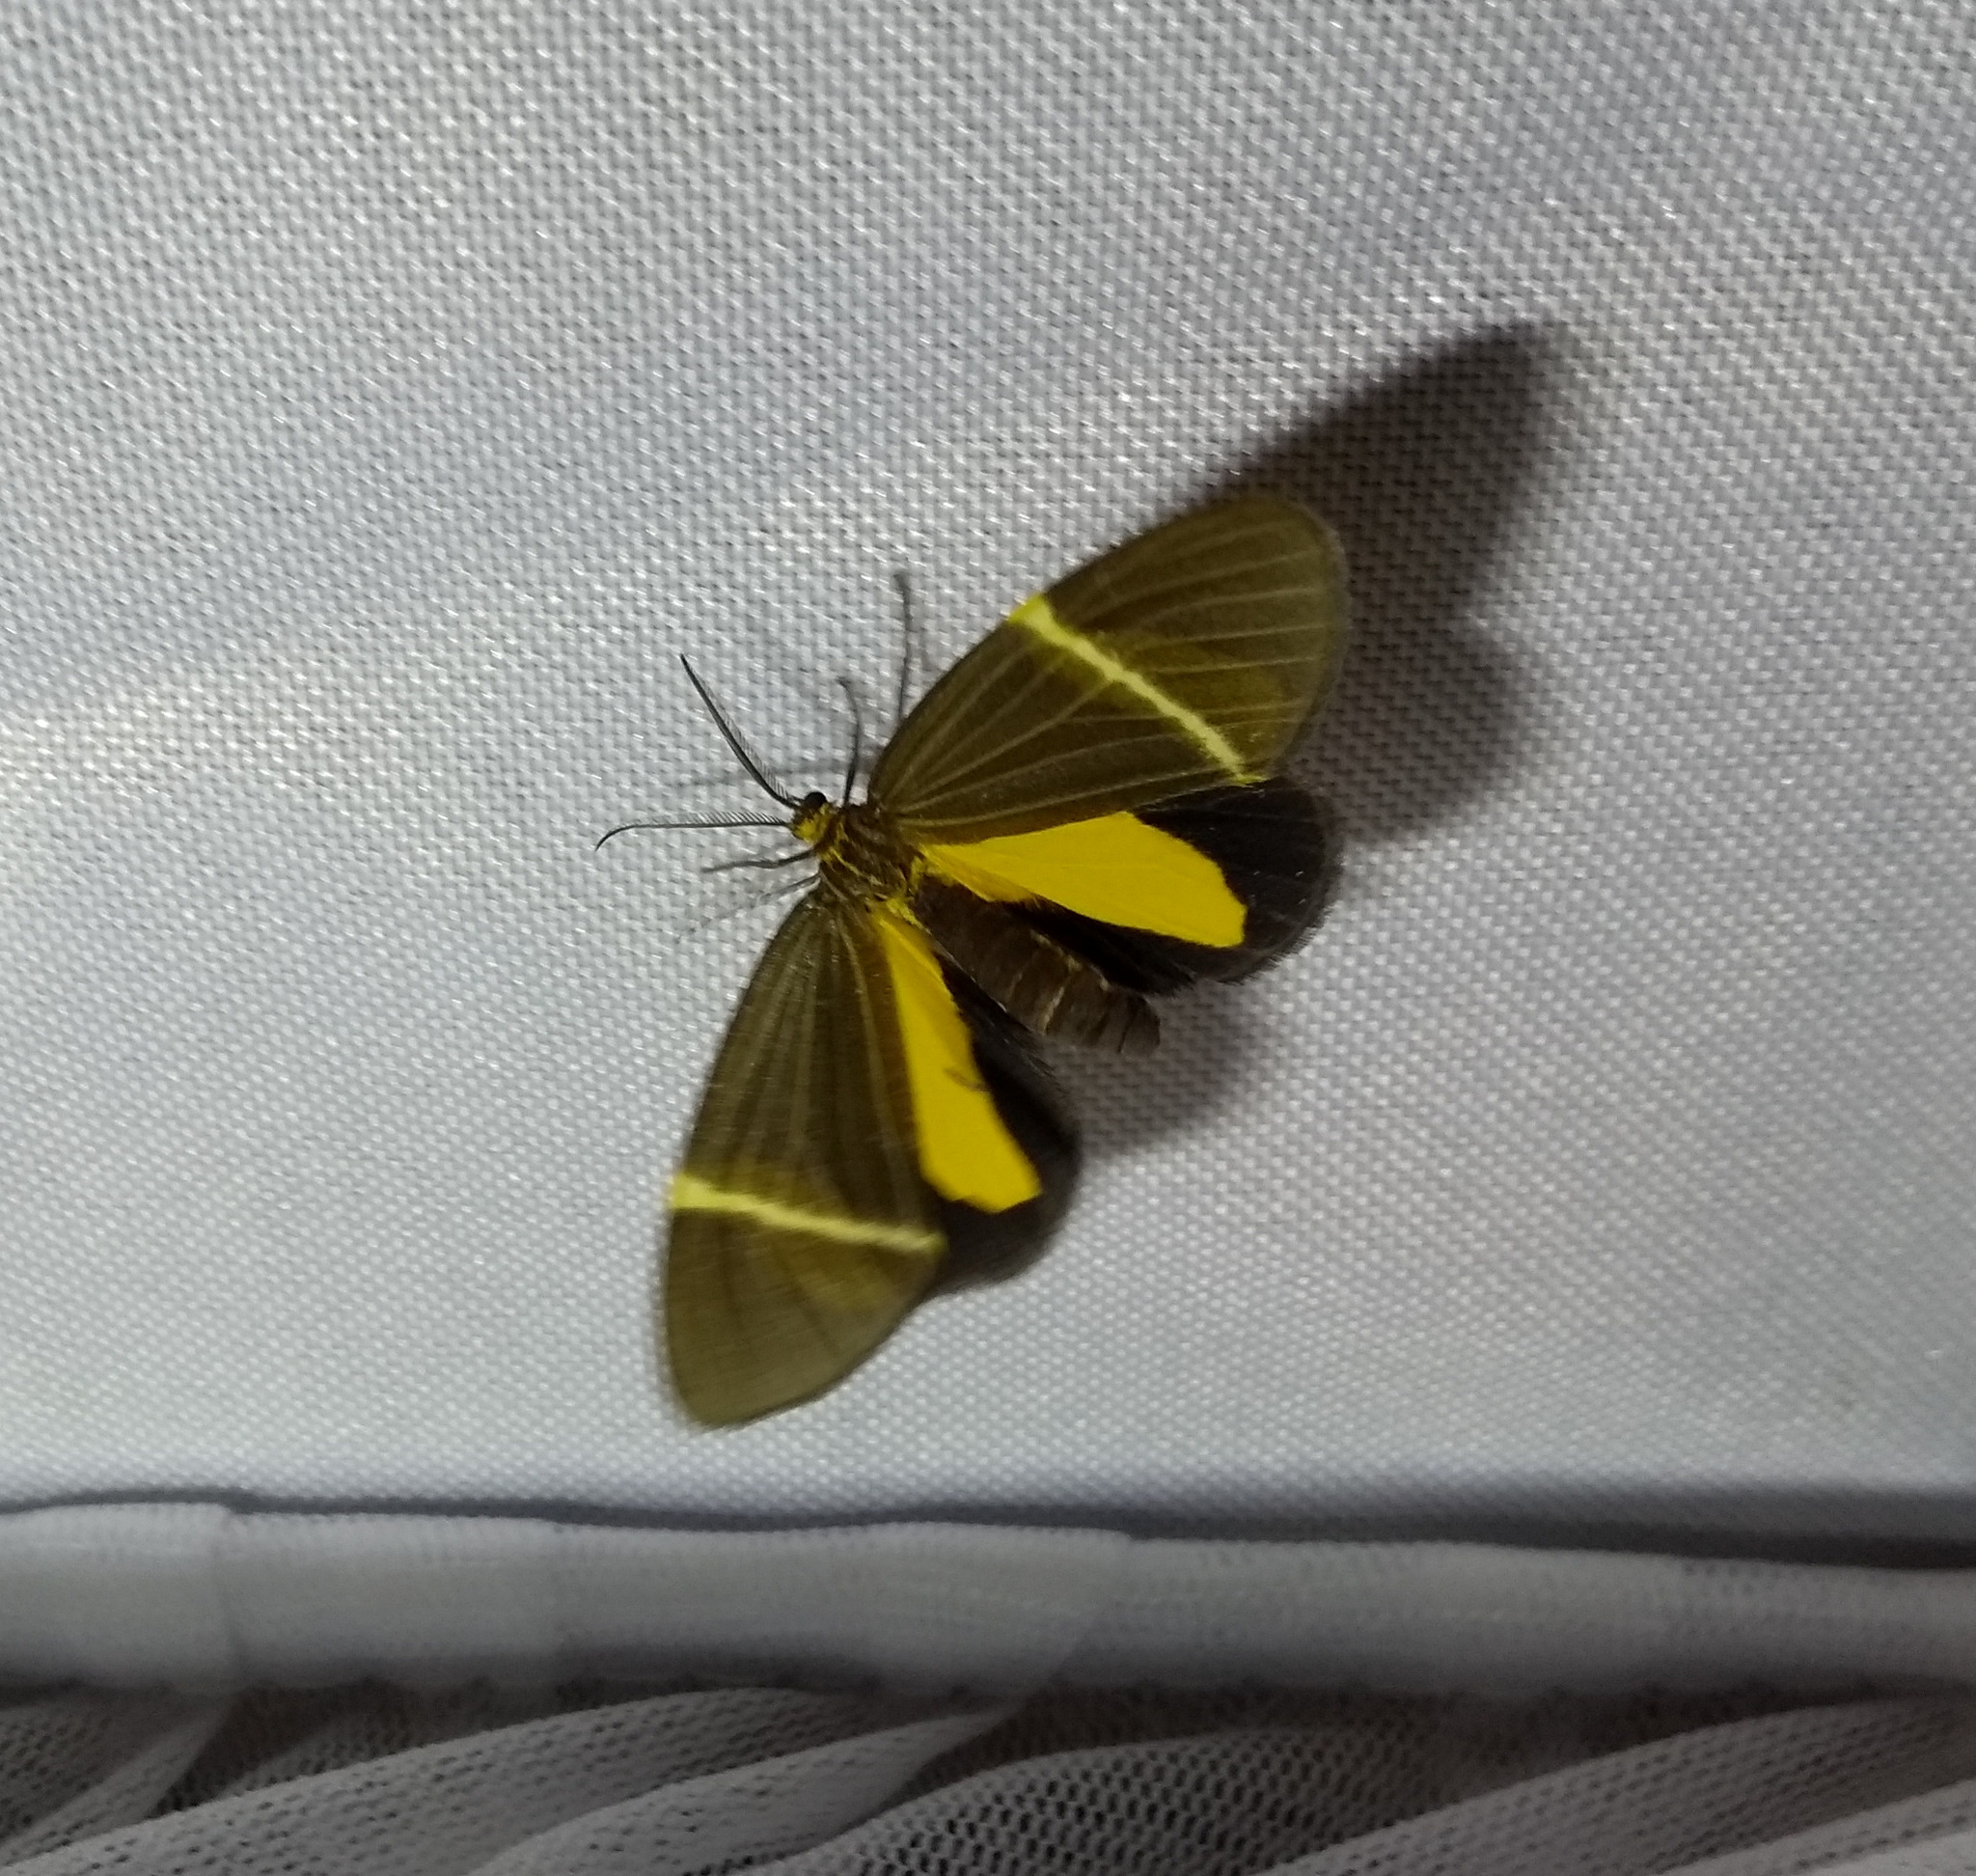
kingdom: Animalia
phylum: Arthropoda
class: Insecta
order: Lepidoptera
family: Erebidae
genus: Euchlaenidia
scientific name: Euchlaenidia neglecta
